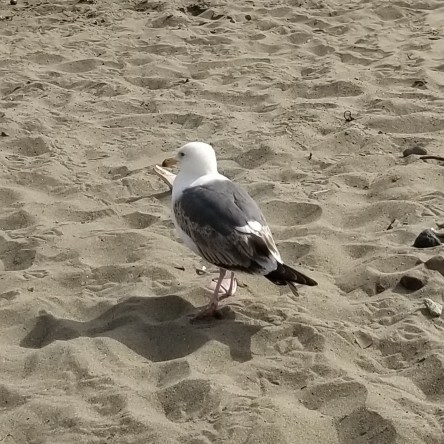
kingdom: Animalia
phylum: Chordata
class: Aves
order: Charadriiformes
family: Laridae
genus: Larus
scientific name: Larus occidentalis
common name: Western gull
